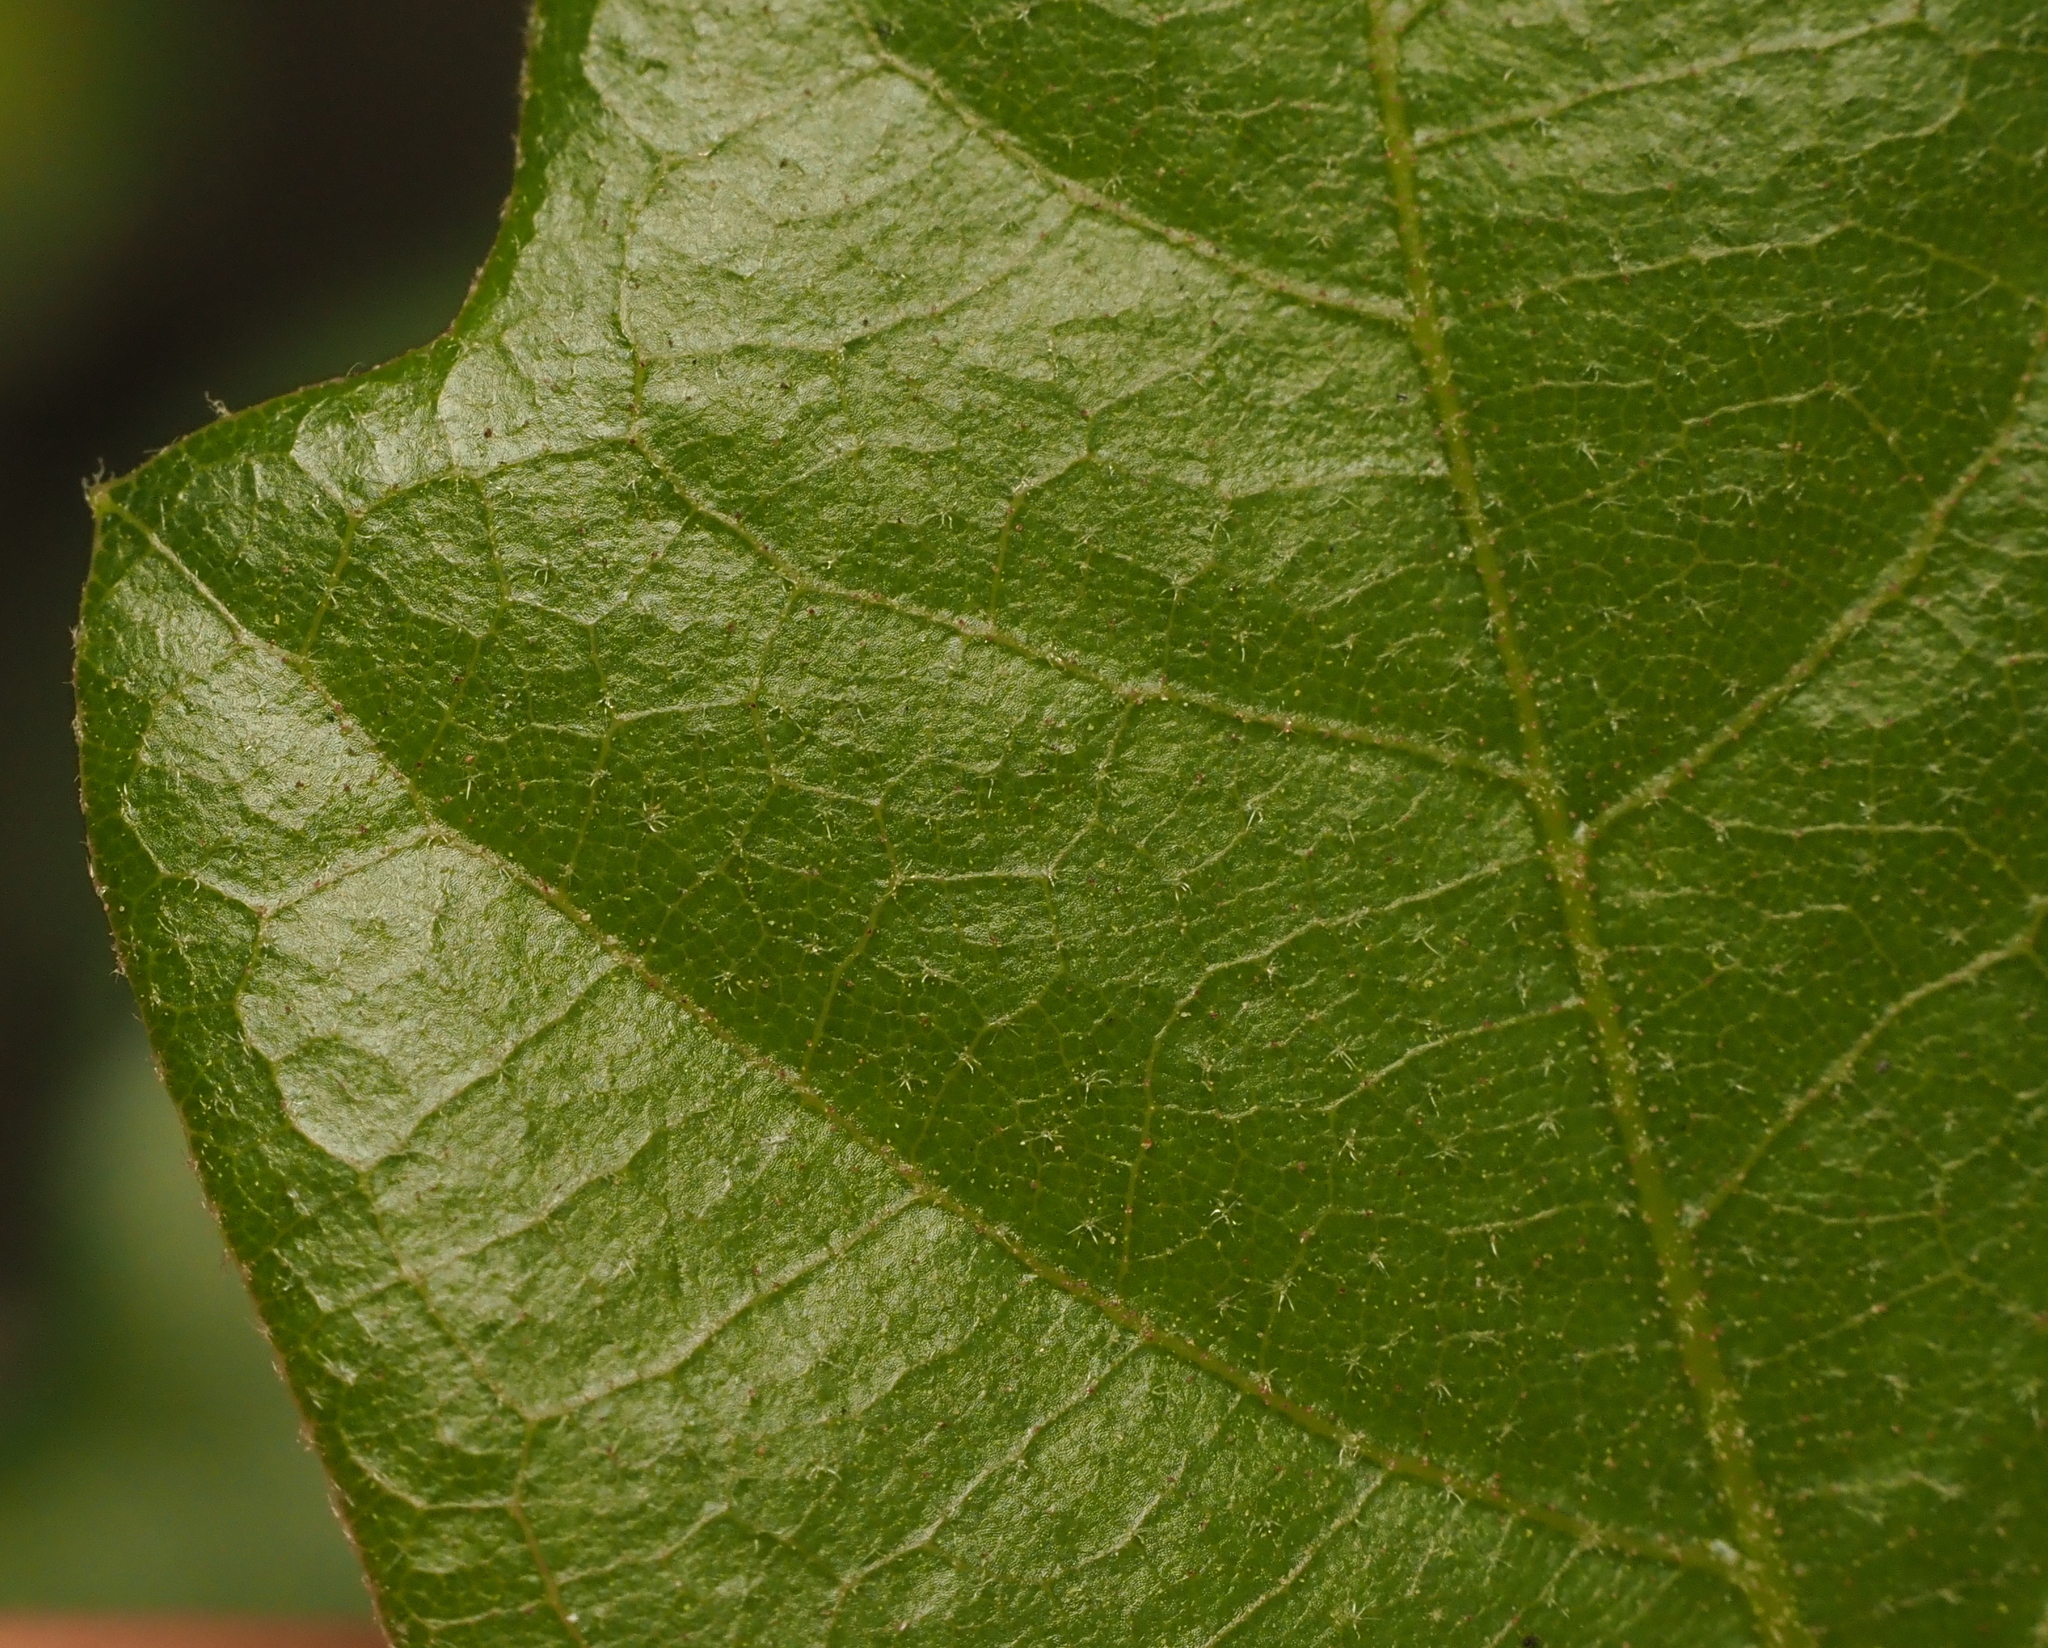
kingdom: Plantae
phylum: Tracheophyta
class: Magnoliopsida
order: Fagales
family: Fagaceae
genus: Quercus
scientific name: Quercus sinuata
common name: Durand oak
